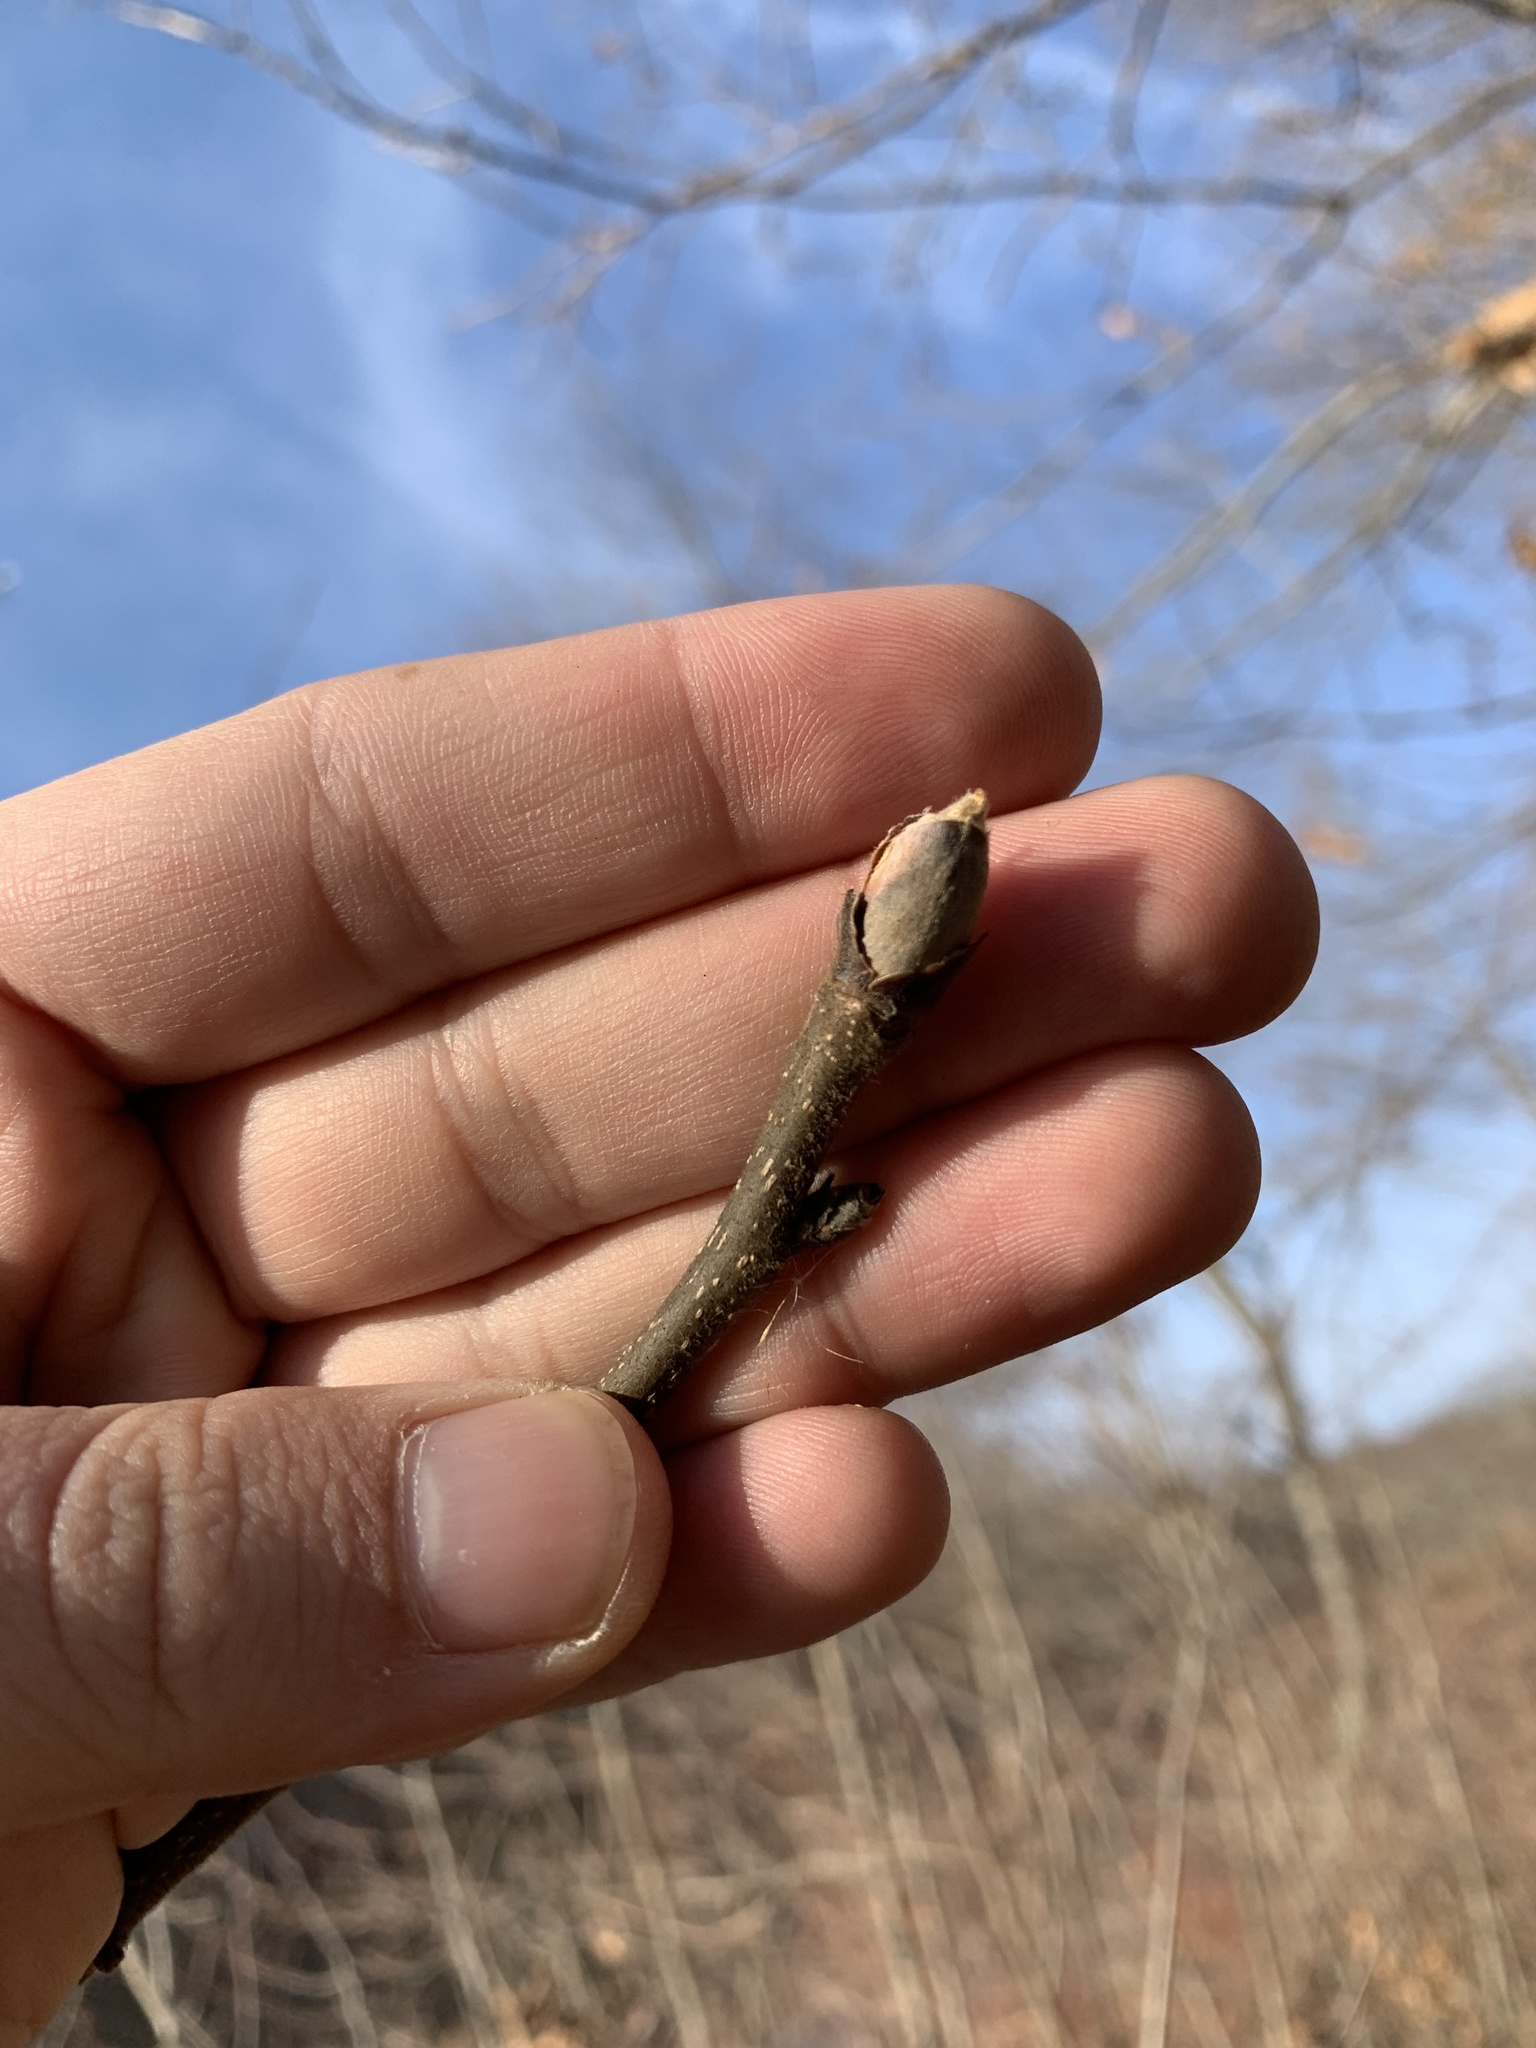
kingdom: Plantae
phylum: Tracheophyta
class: Magnoliopsida
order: Fagales
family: Juglandaceae
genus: Carya
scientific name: Carya ovata
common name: Shagbark hickory
